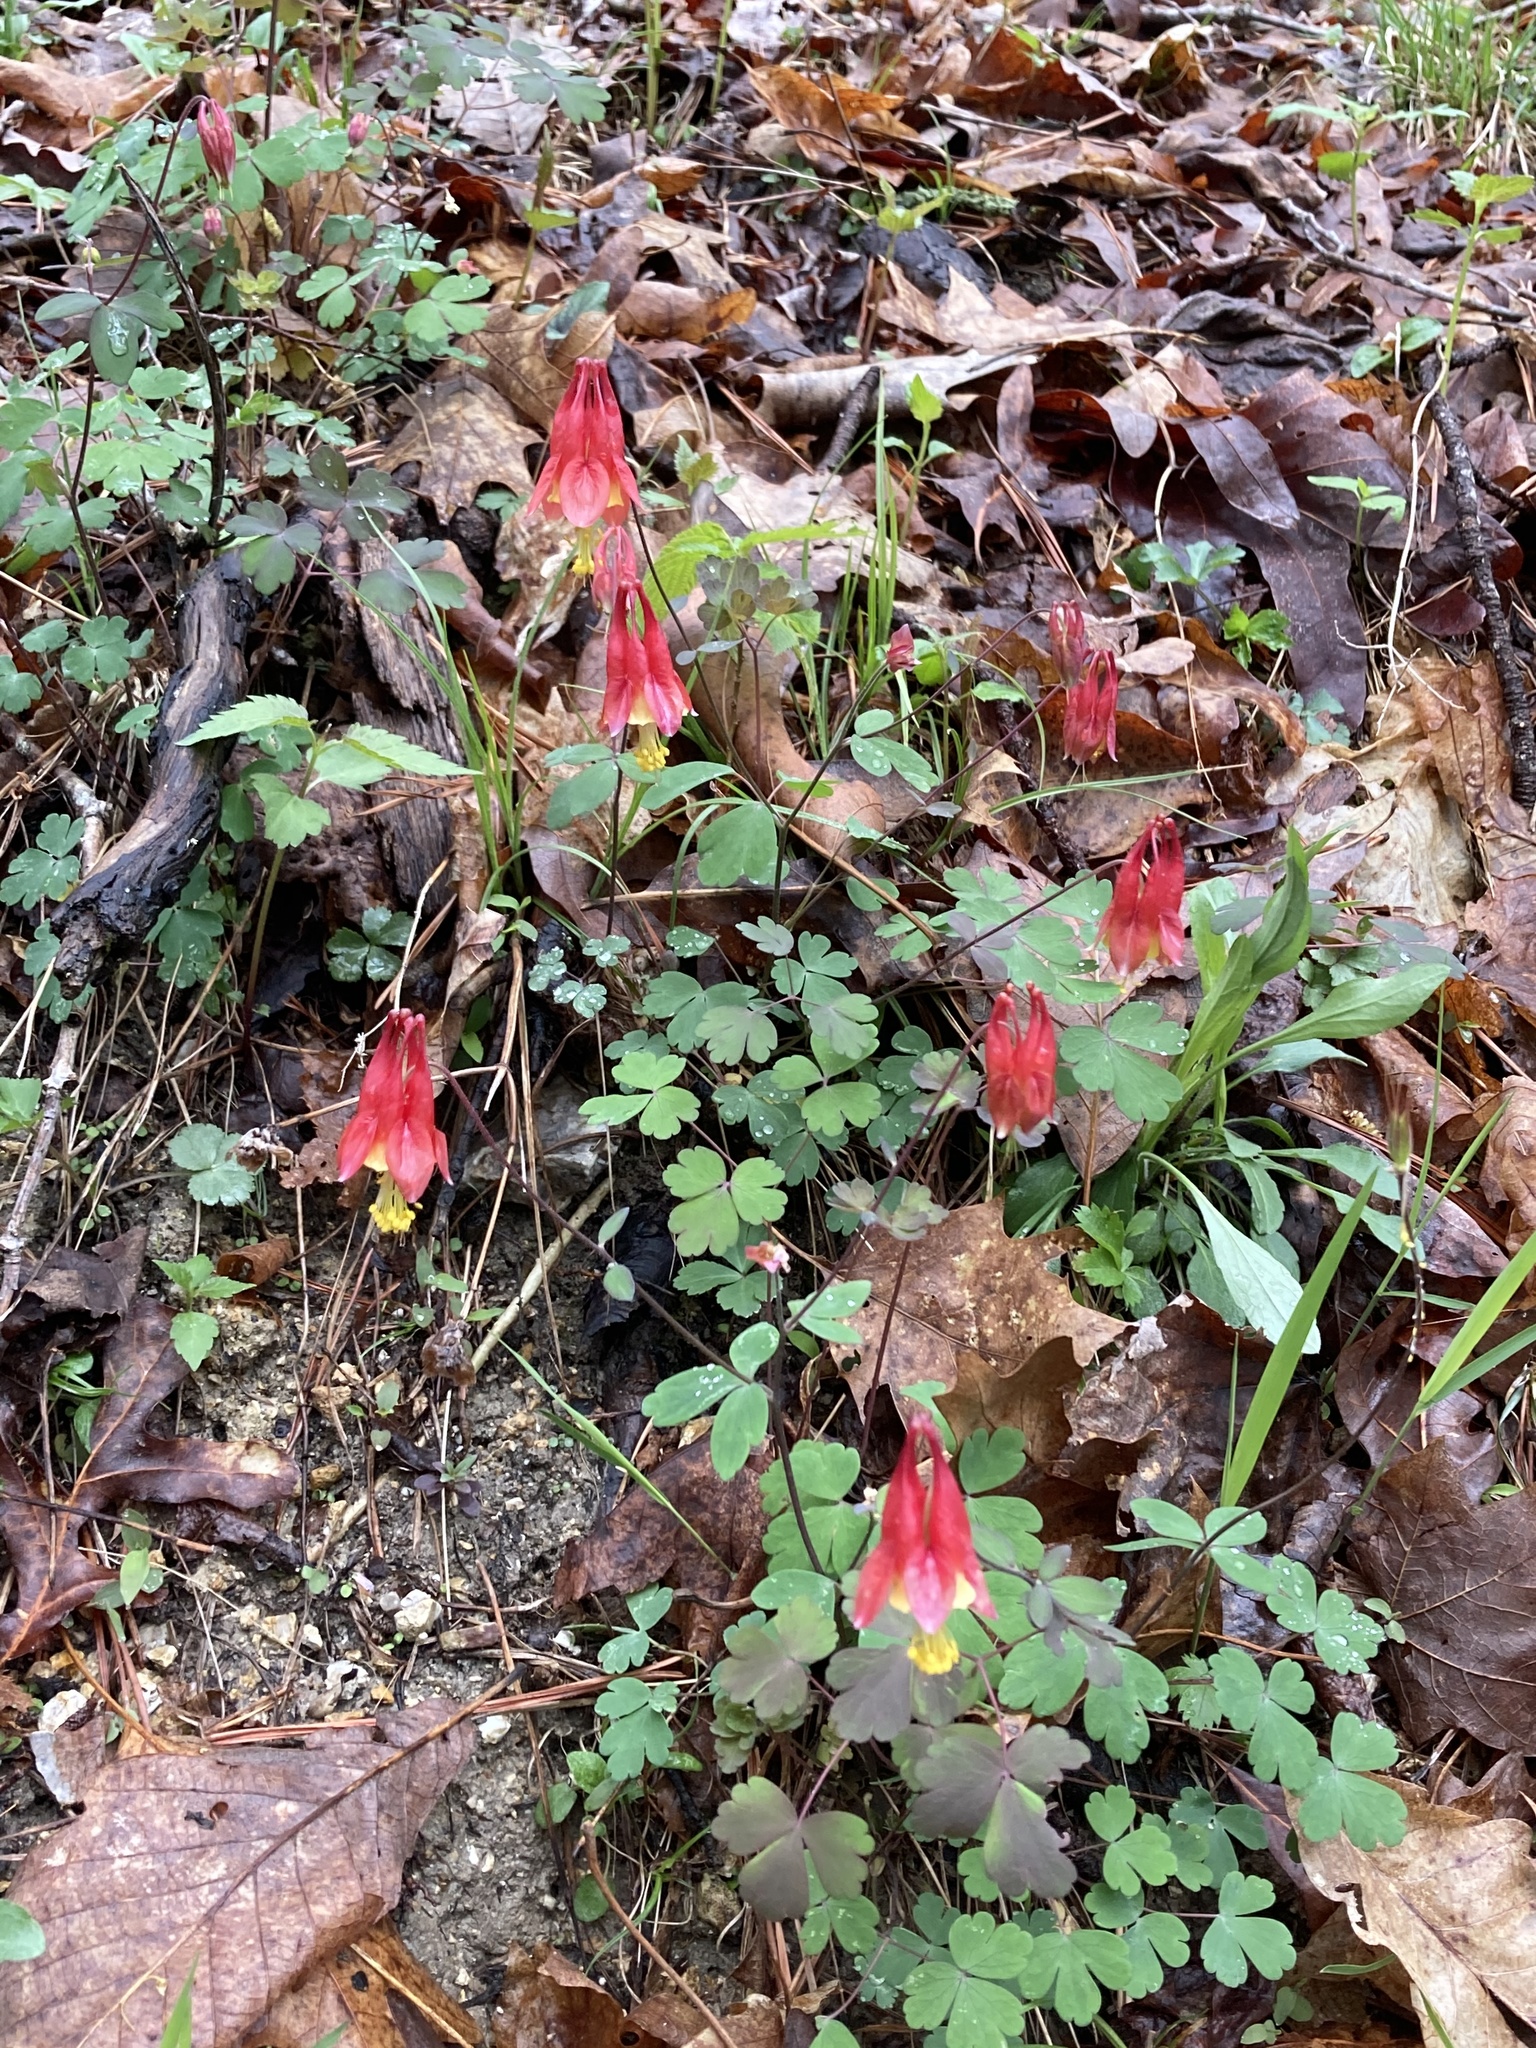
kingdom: Plantae
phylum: Tracheophyta
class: Magnoliopsida
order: Ranunculales
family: Ranunculaceae
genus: Aquilegia
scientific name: Aquilegia canadensis
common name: American columbine
